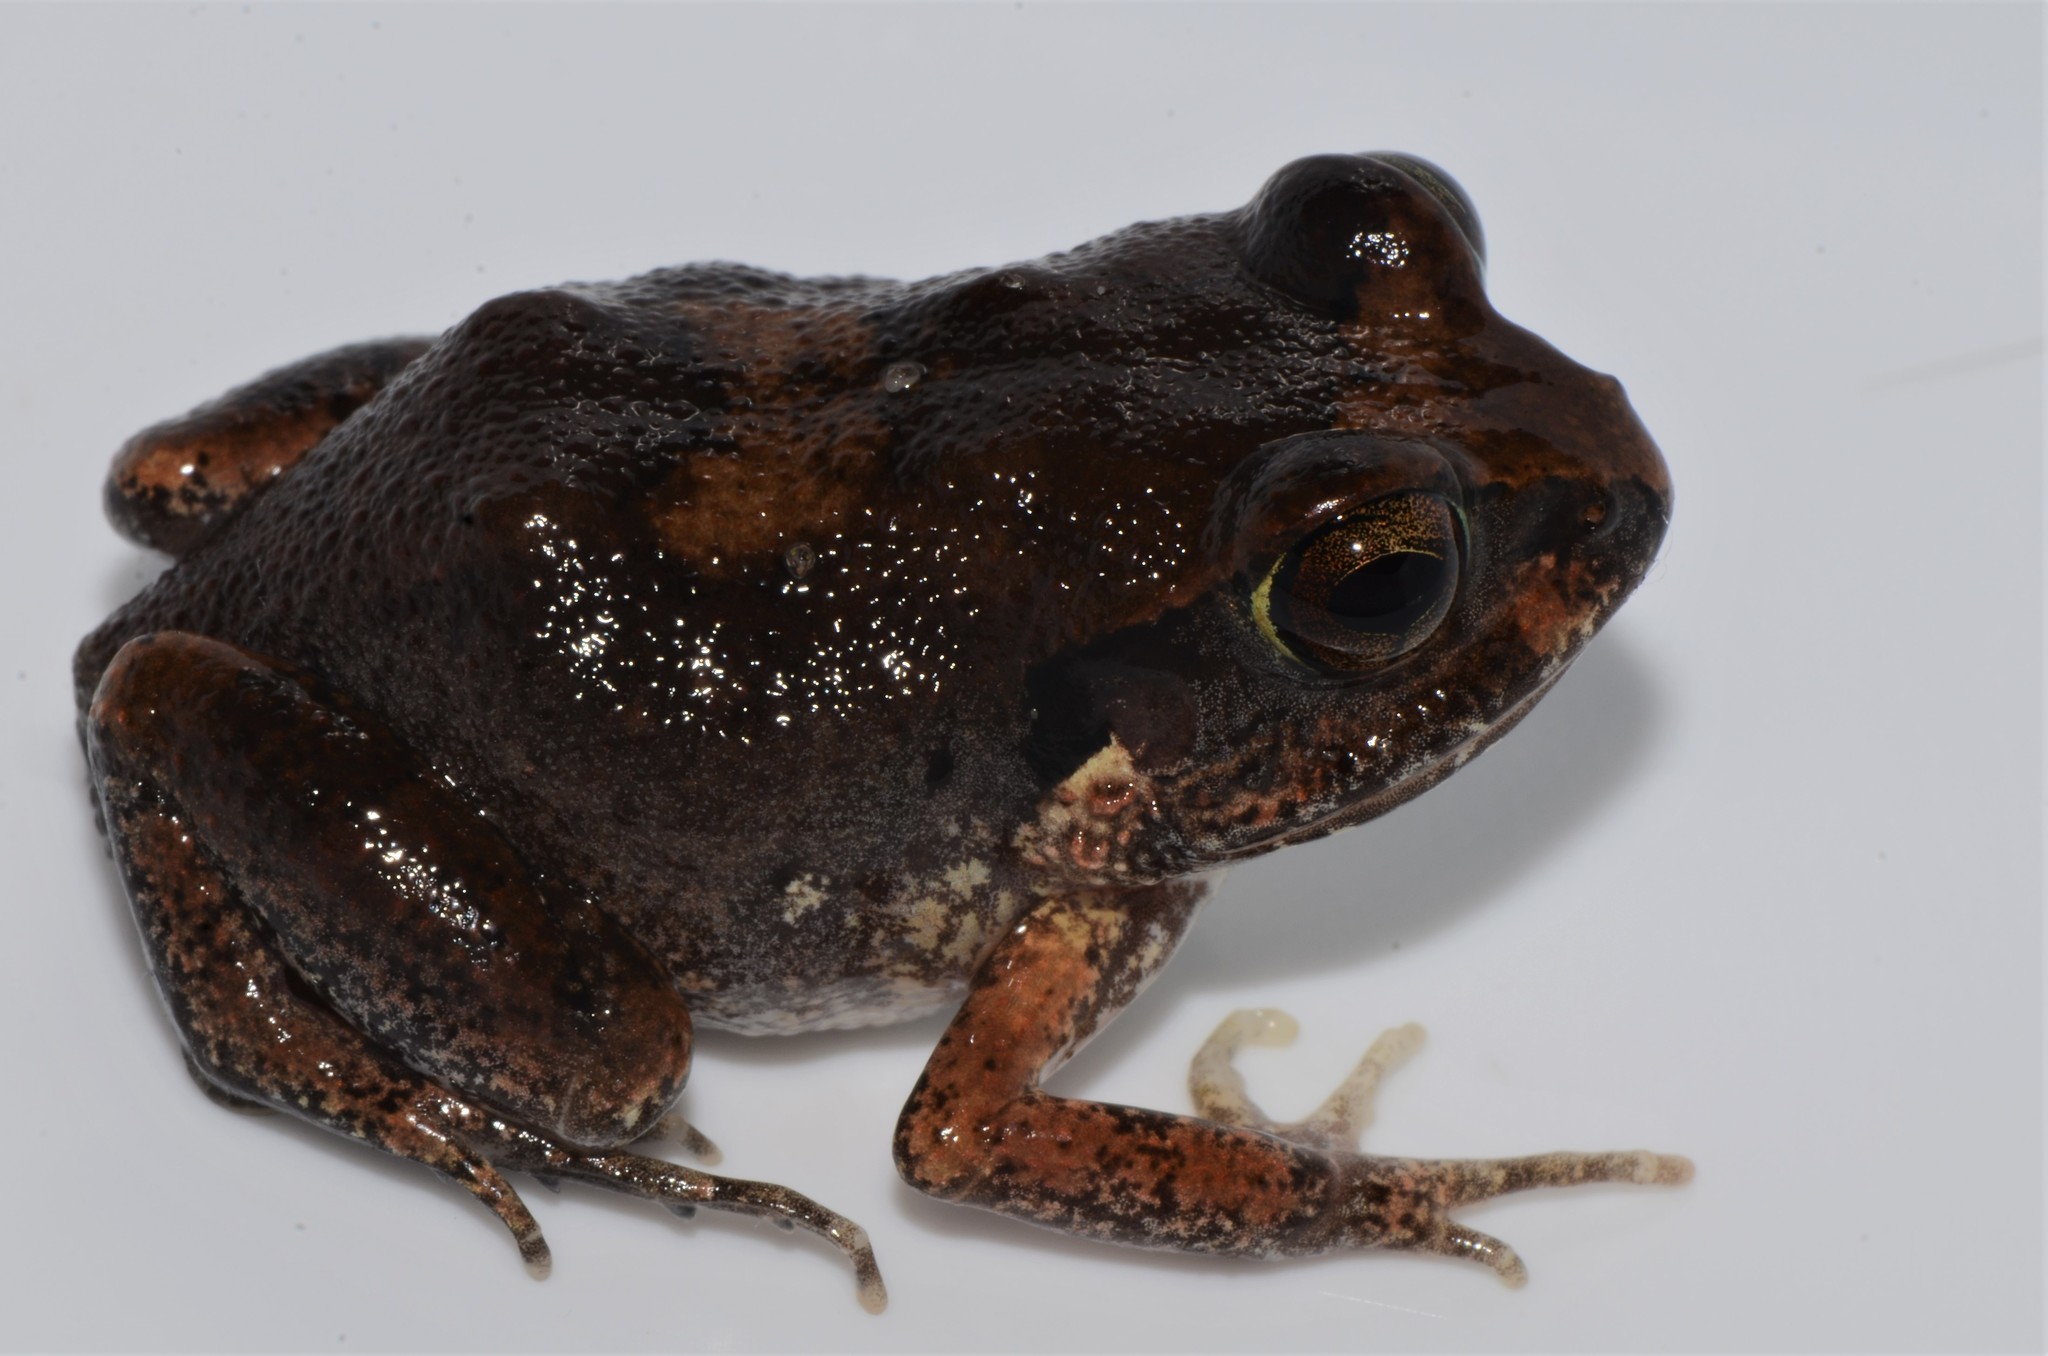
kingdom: Animalia
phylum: Chordata
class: Amphibia
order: Anura
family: Arthroleptidae
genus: Arthroleptis
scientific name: Arthroleptis stenodactylus
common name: Dune squeaker
